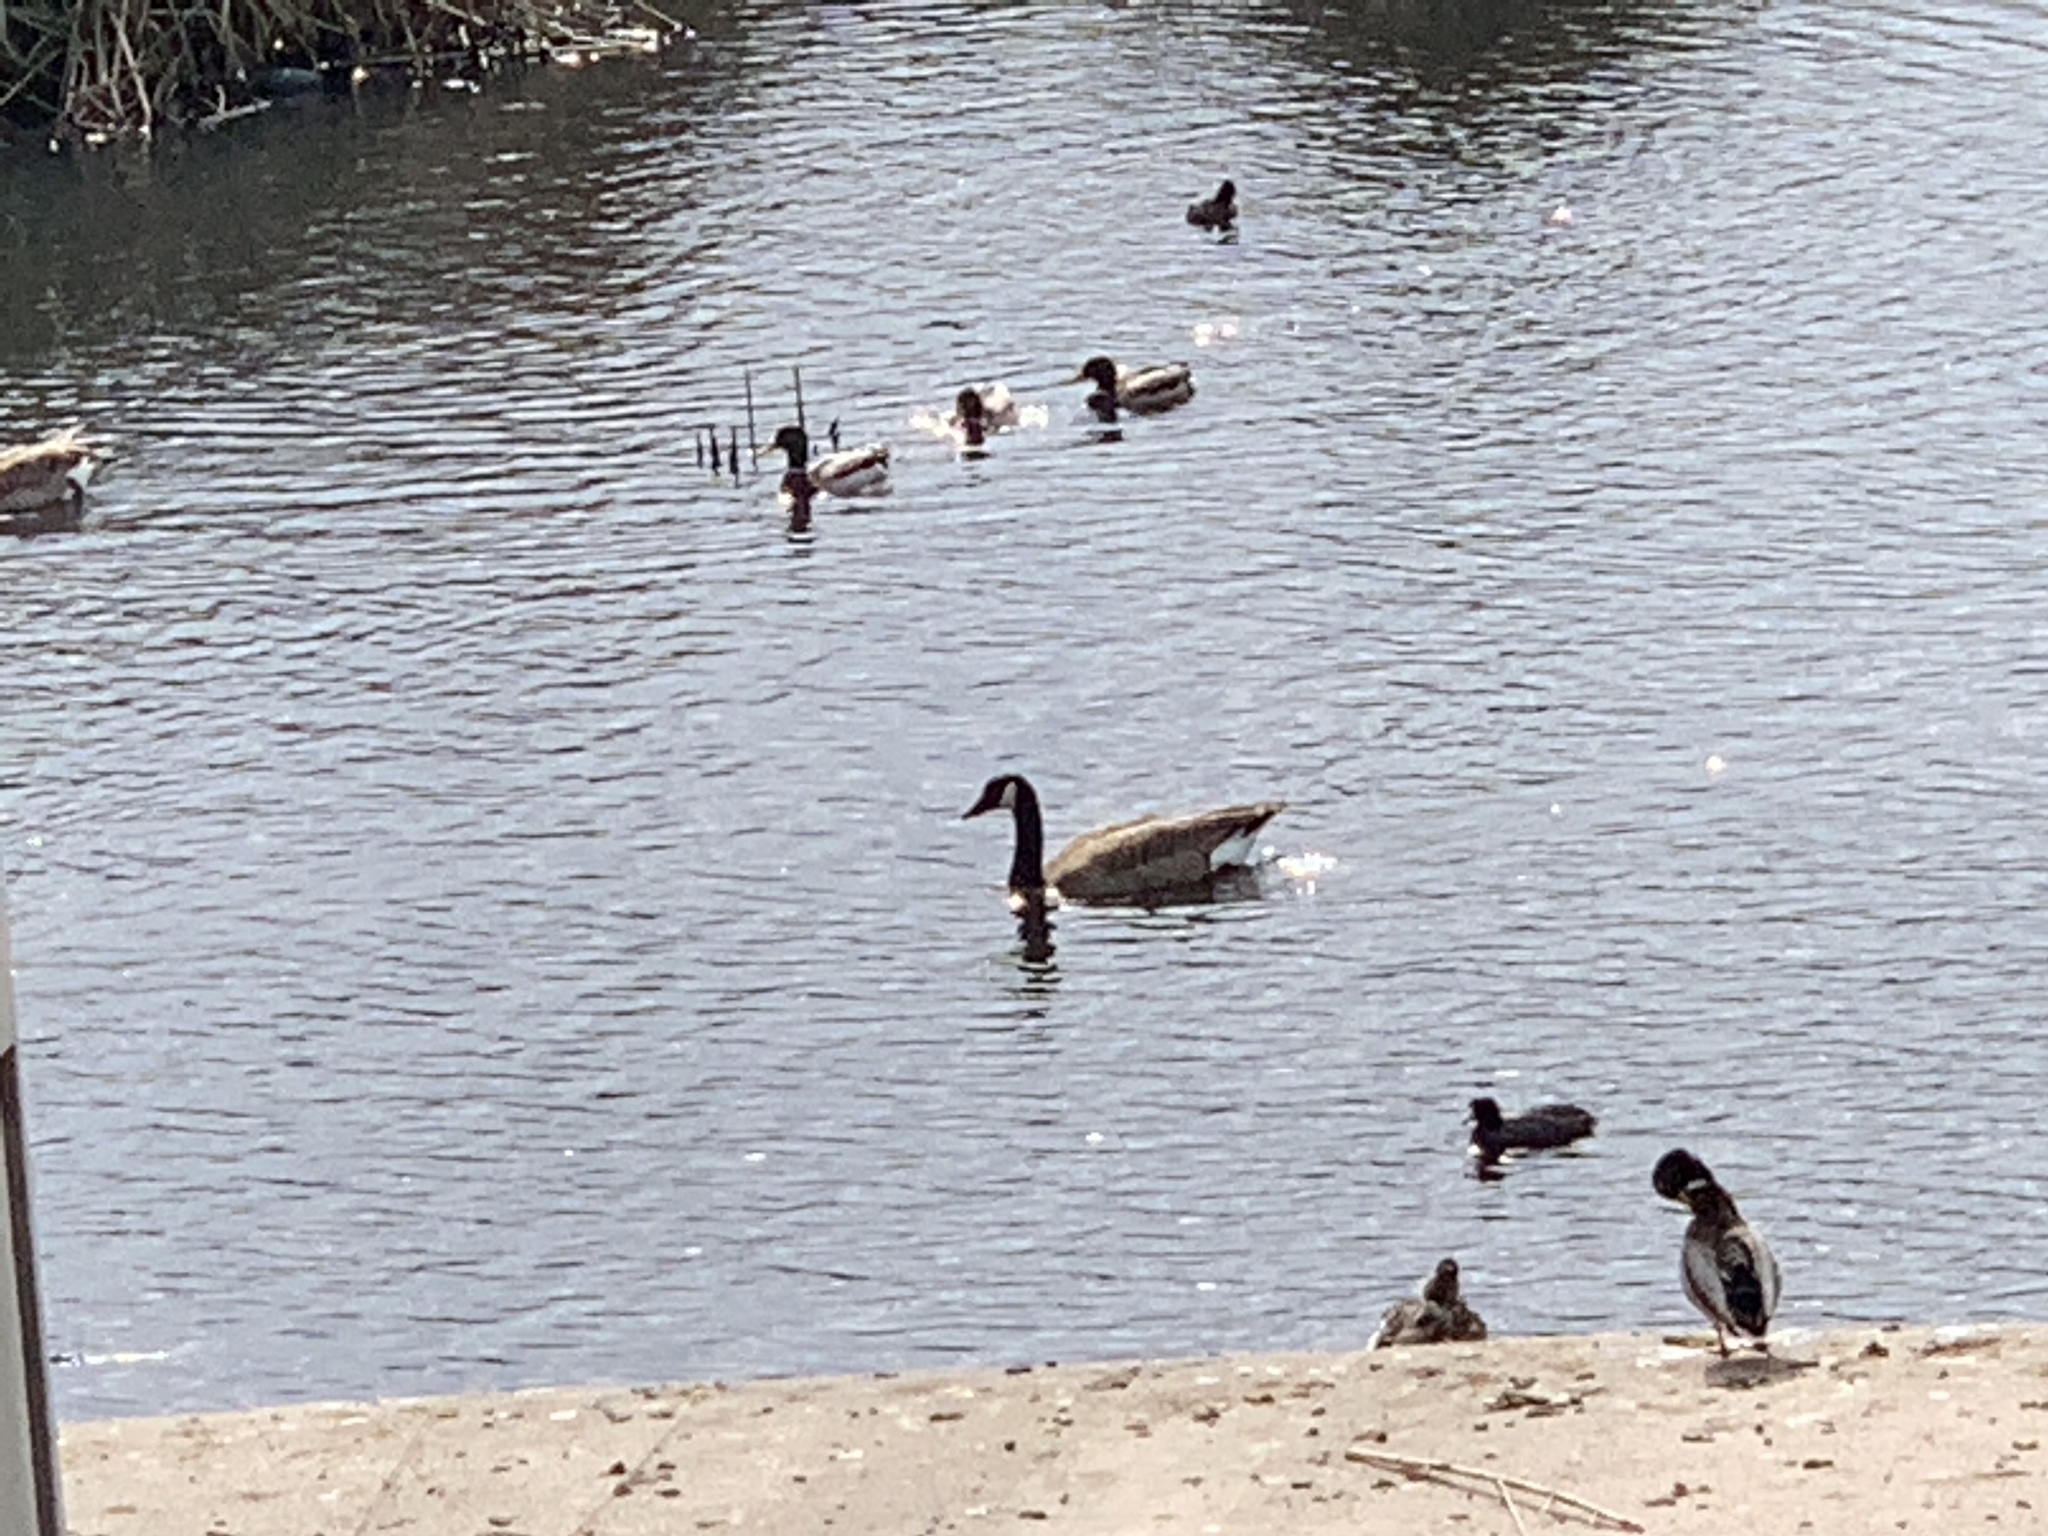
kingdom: Animalia
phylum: Chordata
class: Aves
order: Anseriformes
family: Anatidae
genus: Branta
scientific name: Branta canadensis
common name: Canada goose
